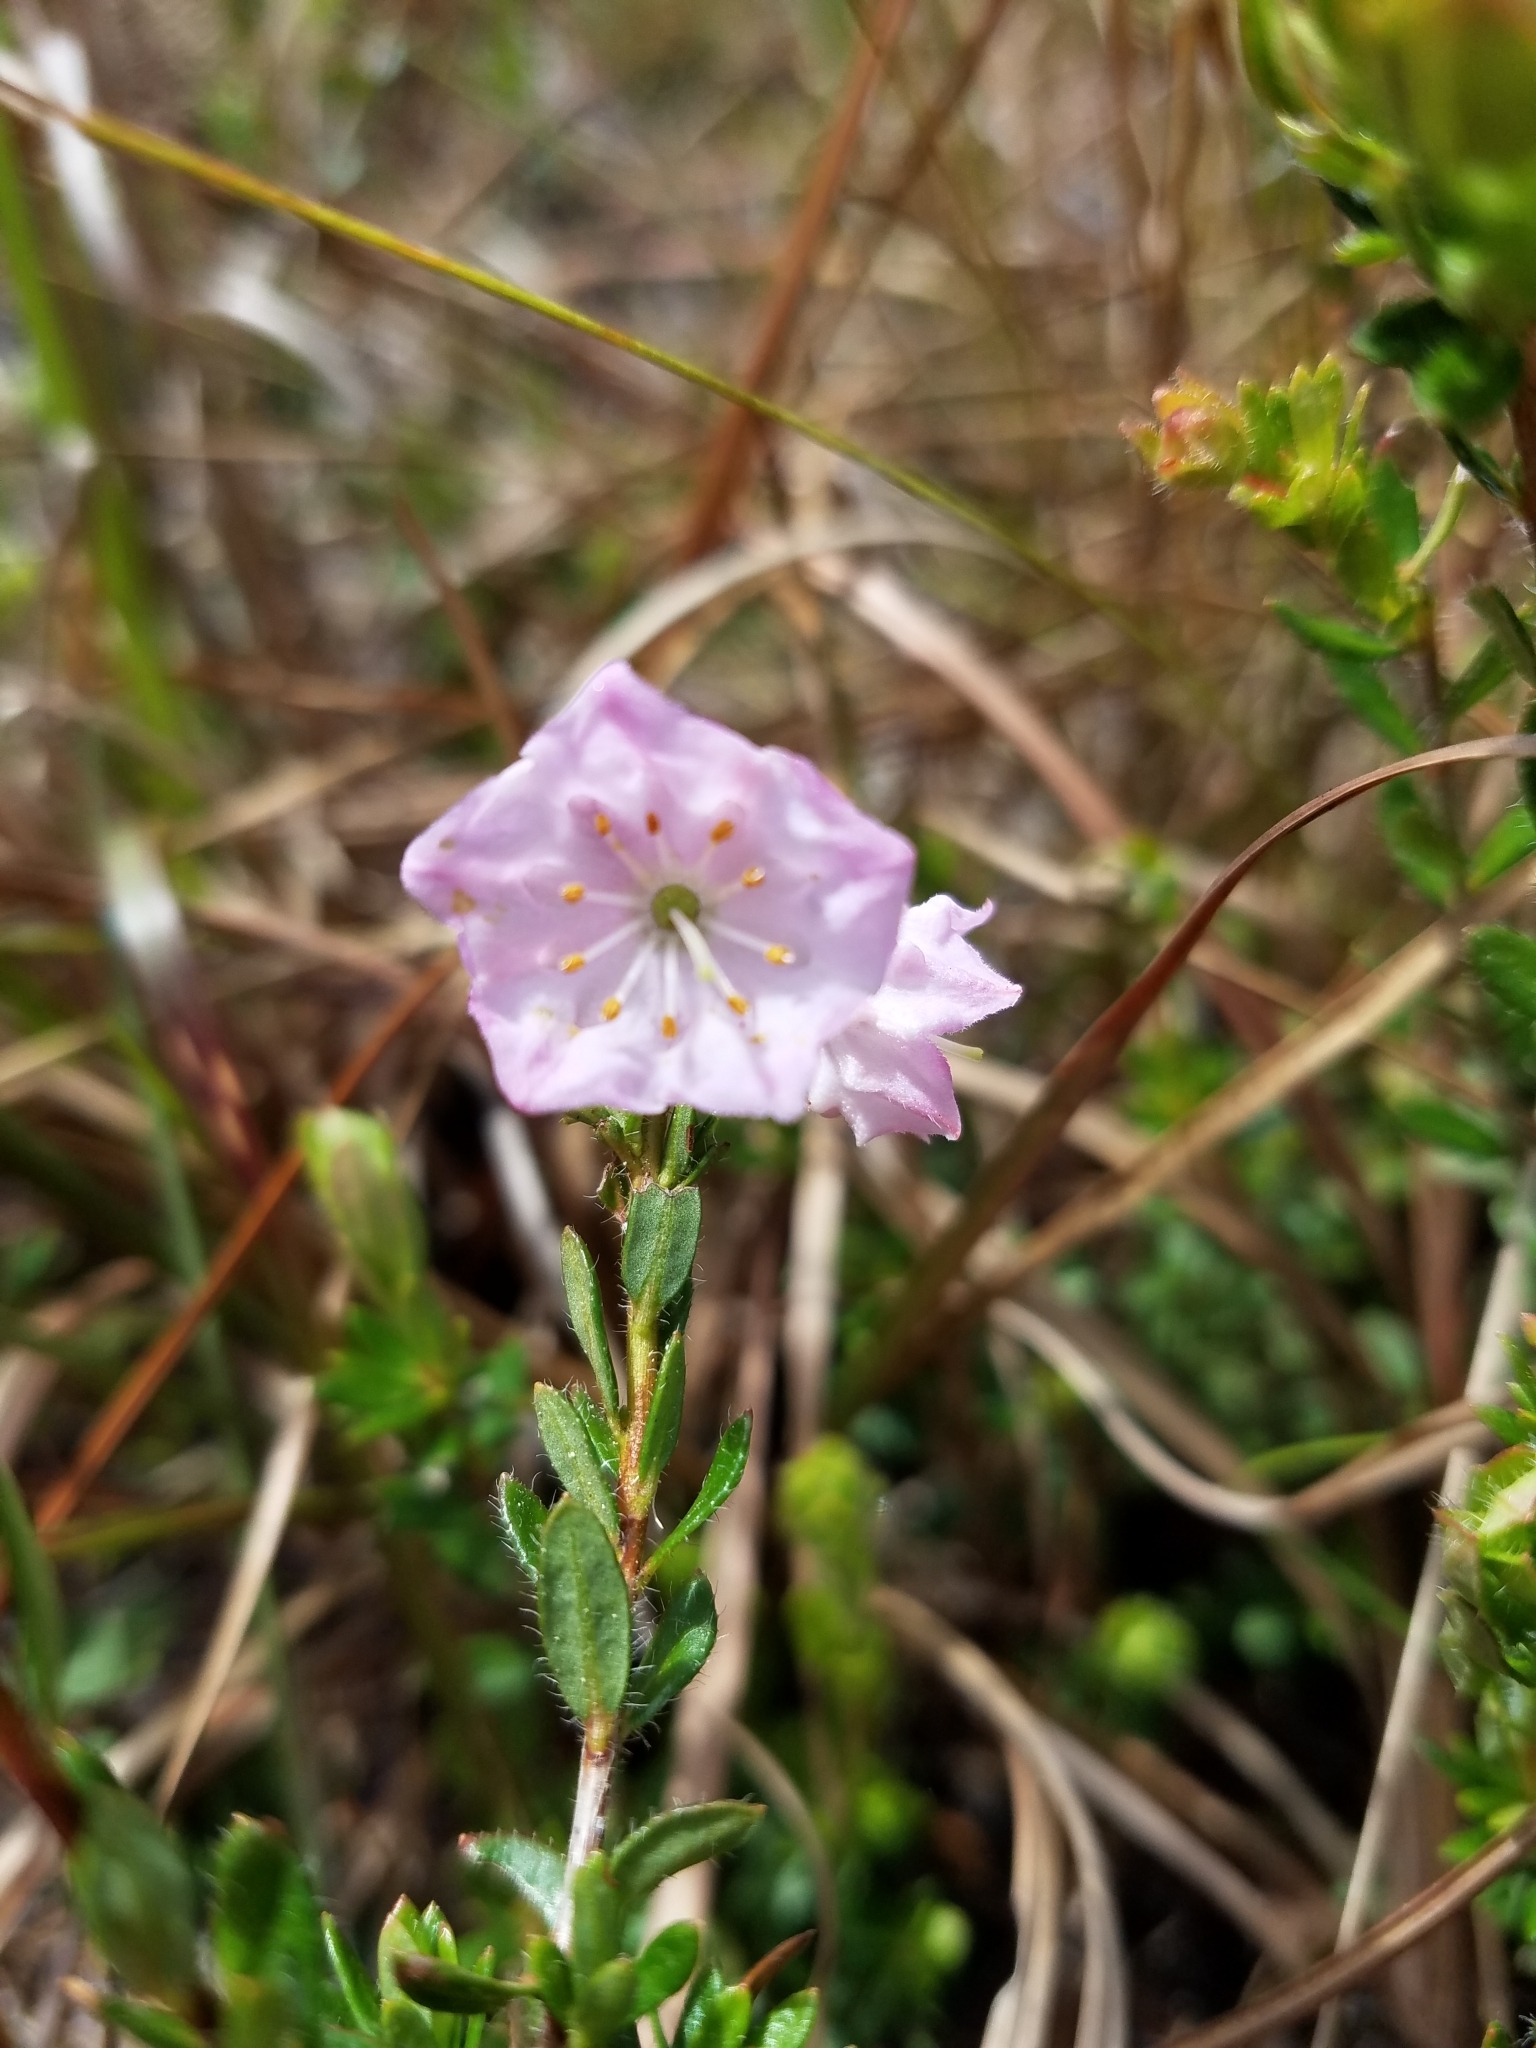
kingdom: Plantae
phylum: Tracheophyta
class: Magnoliopsida
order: Ericales
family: Ericaceae
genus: Kalmia
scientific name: Kalmia hirsuta
